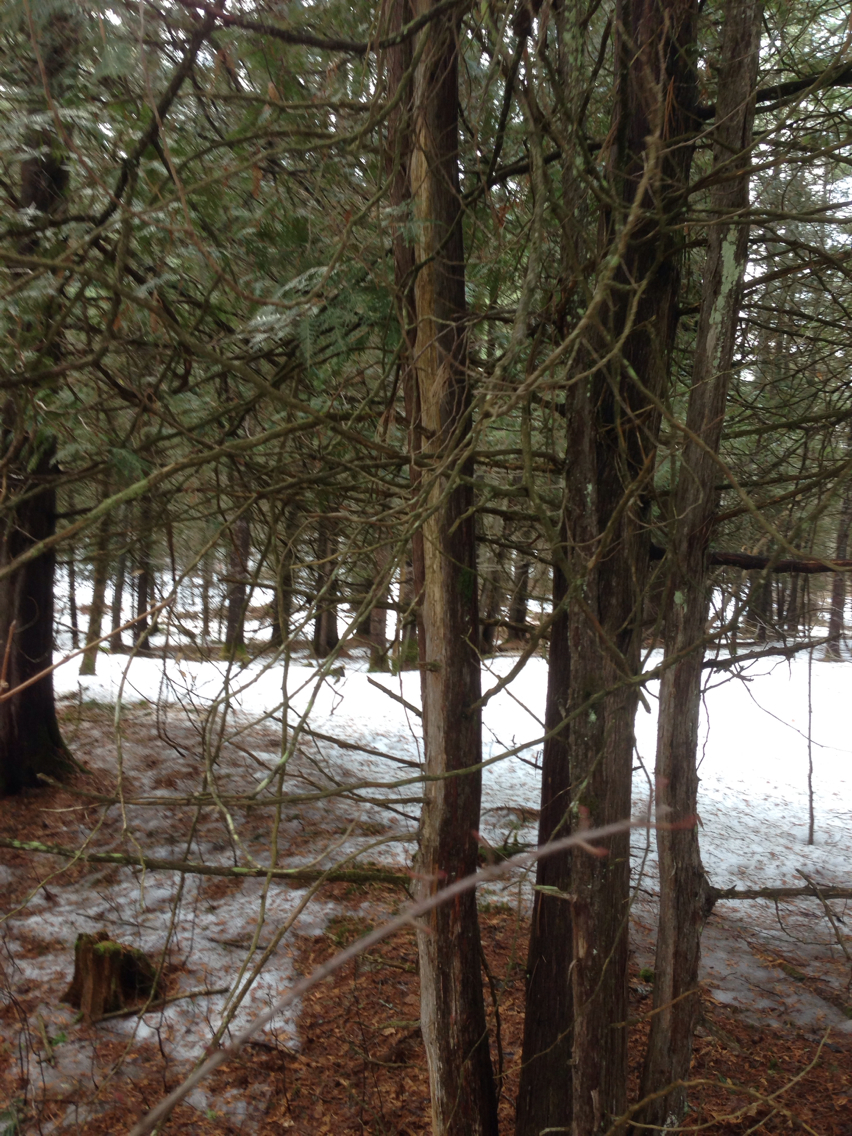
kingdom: Plantae
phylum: Tracheophyta
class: Pinopsida
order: Pinales
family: Cupressaceae
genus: Thuja
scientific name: Thuja occidentalis
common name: Northern white-cedar
